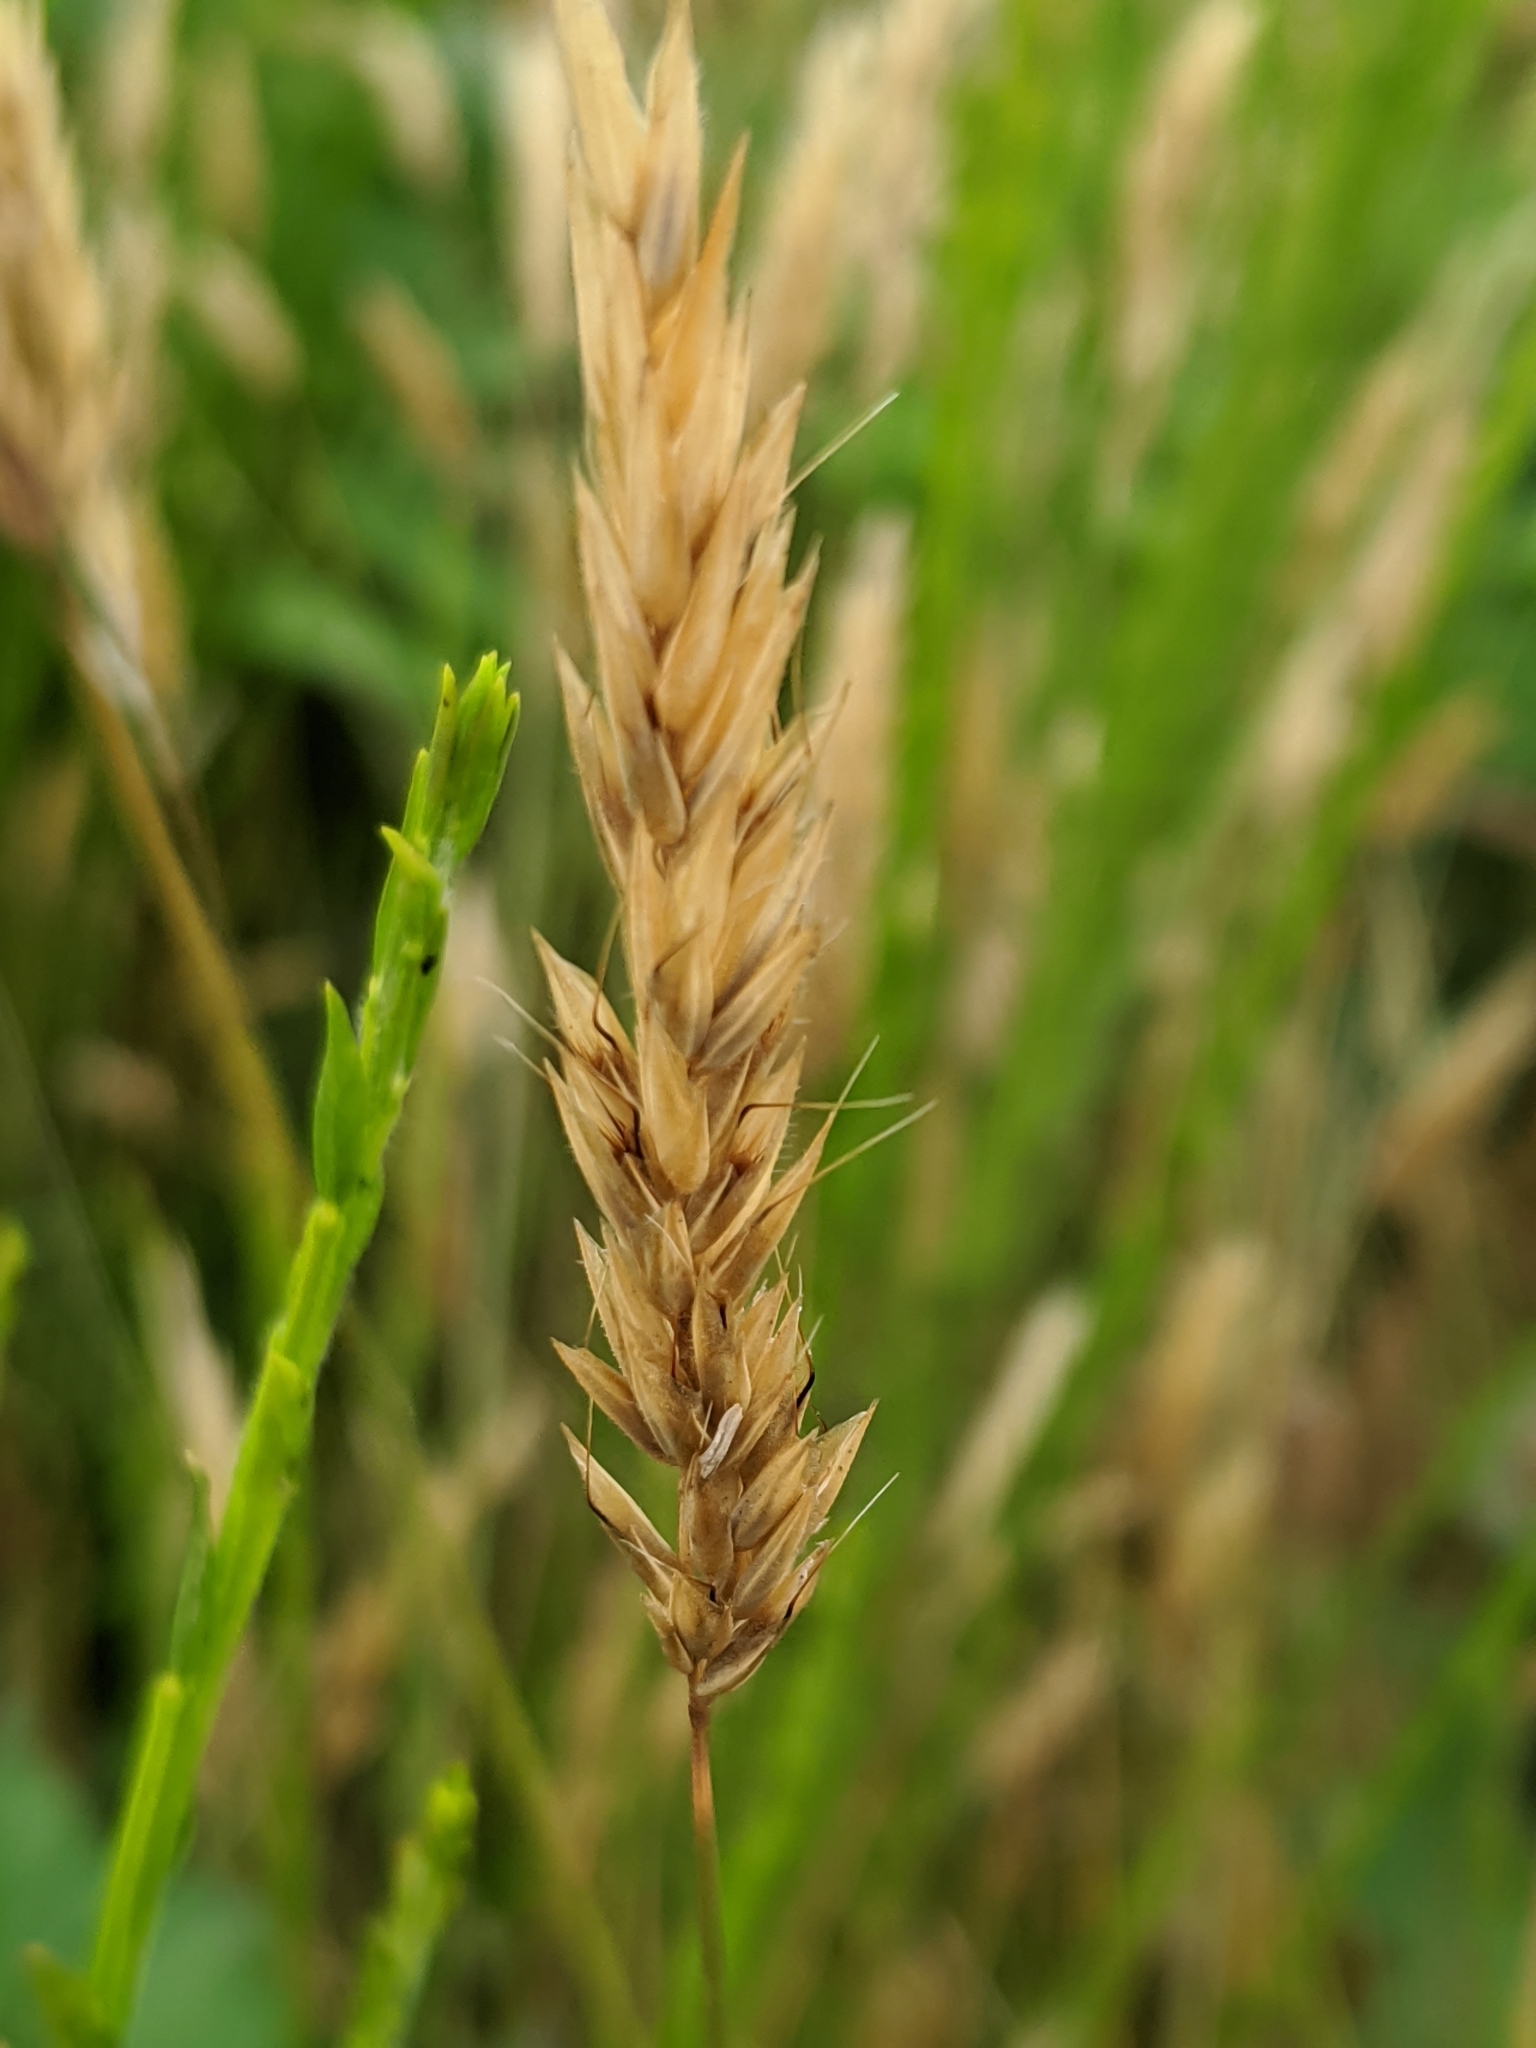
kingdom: Plantae
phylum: Tracheophyta
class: Liliopsida
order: Poales
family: Poaceae
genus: Anthoxanthum
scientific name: Anthoxanthum odoratum
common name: Sweet vernalgrass
